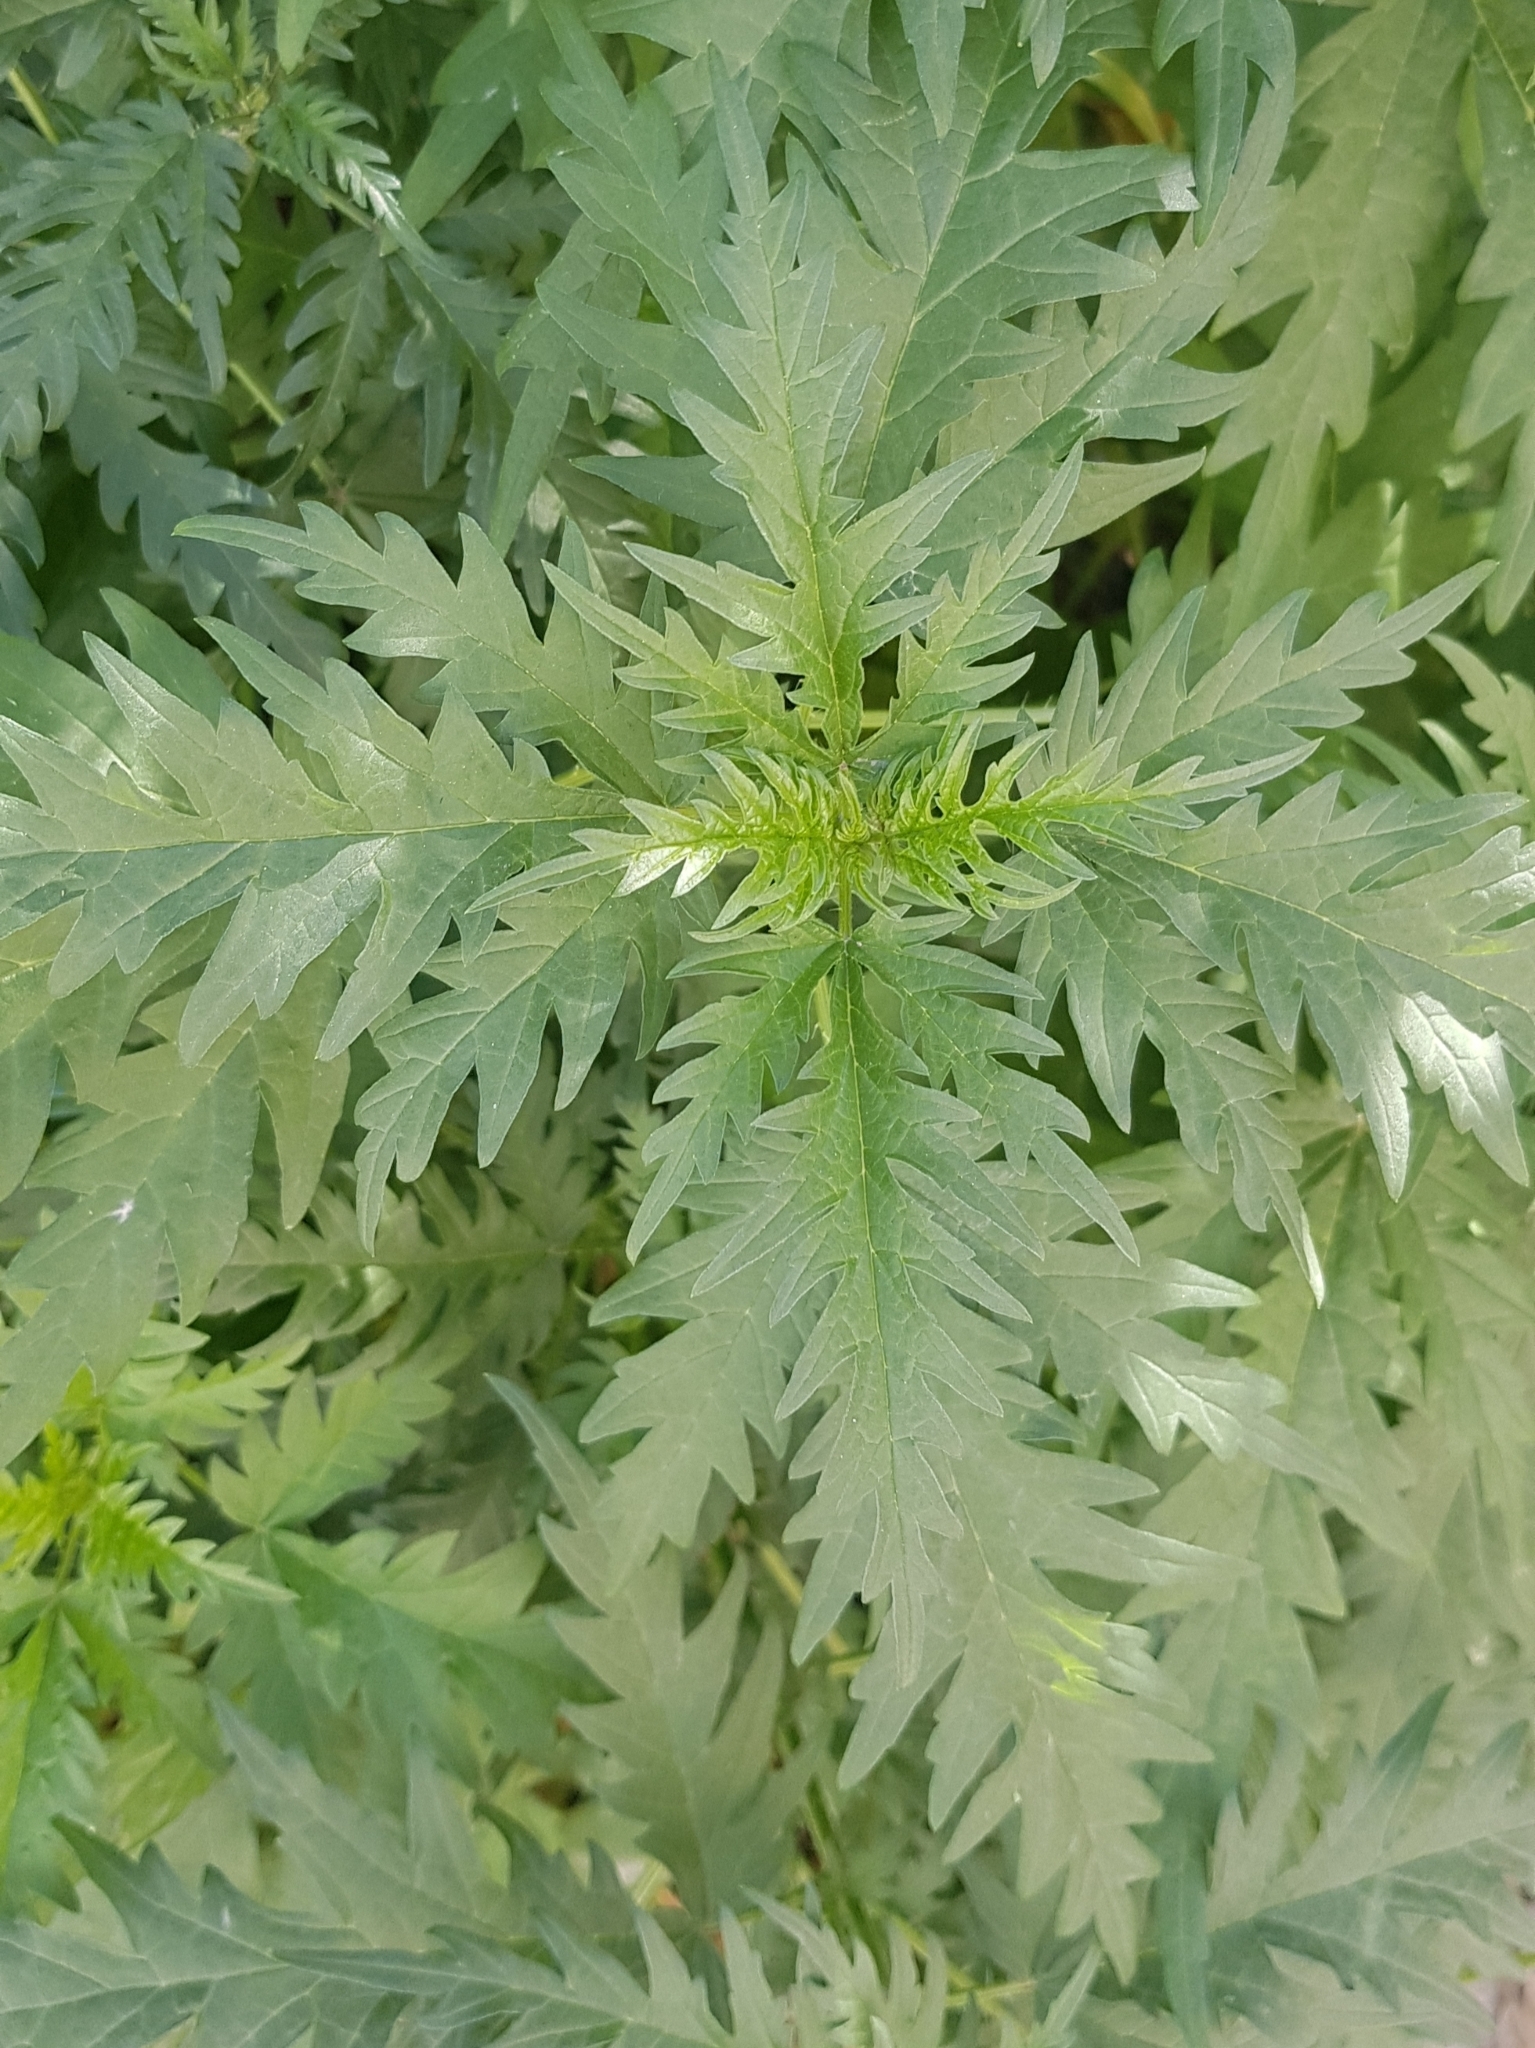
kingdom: Plantae
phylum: Tracheophyta
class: Magnoliopsida
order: Rosales
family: Urticaceae
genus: Urtica
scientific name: Urtica cannabina
